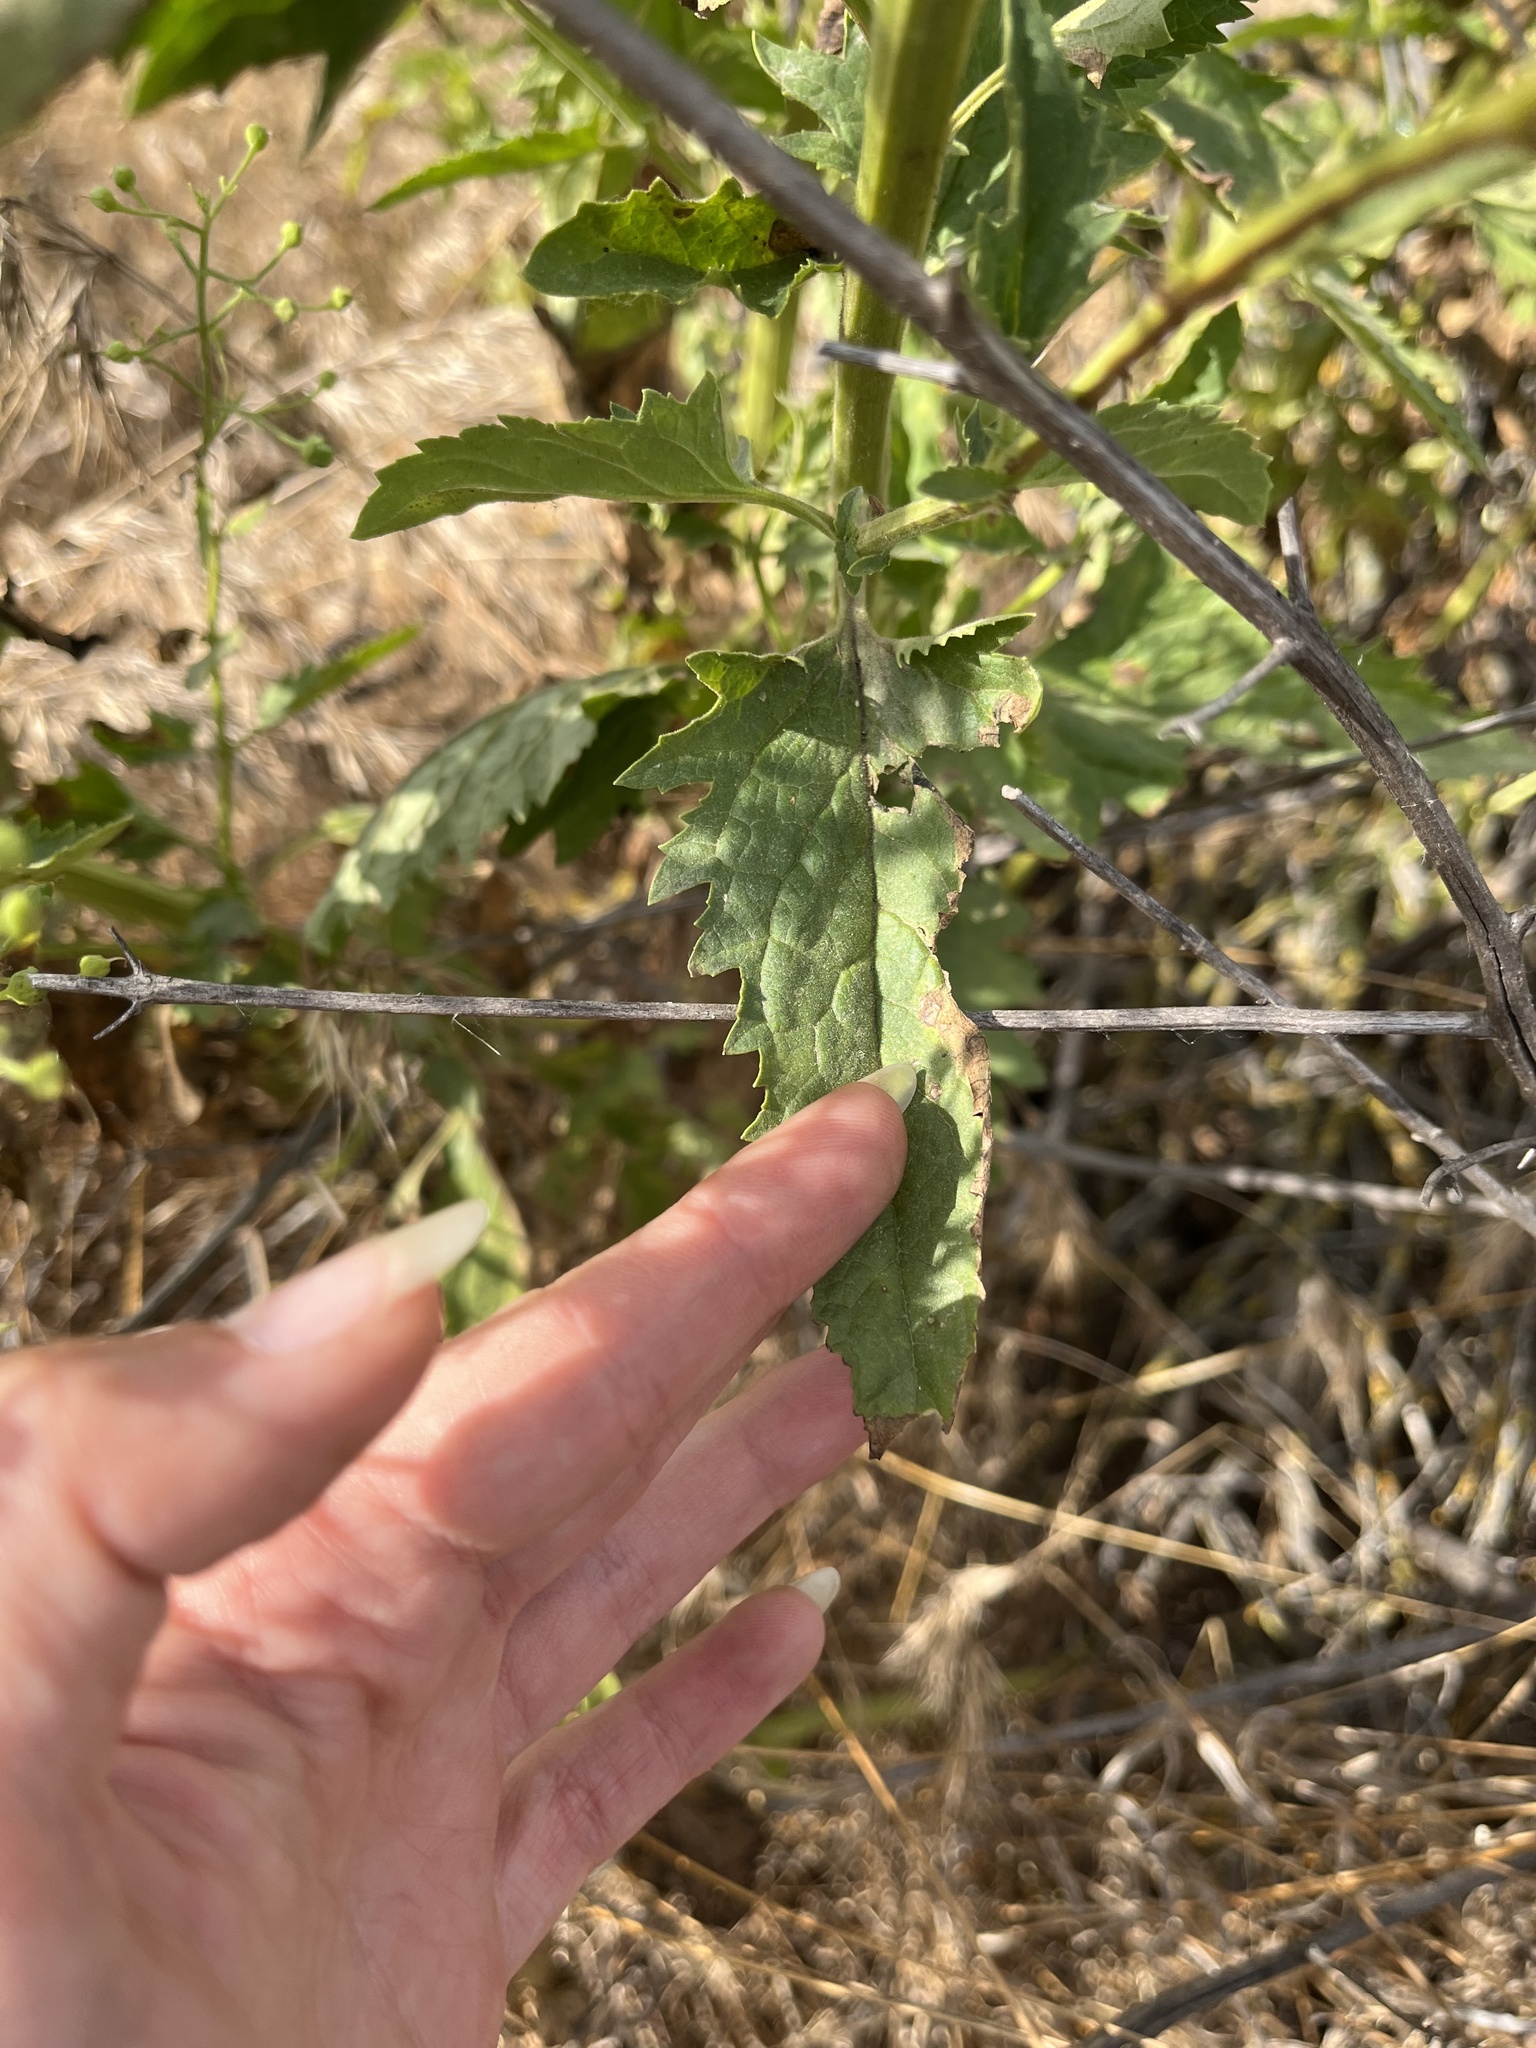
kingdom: Plantae
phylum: Tracheophyta
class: Magnoliopsida
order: Lamiales
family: Scrophulariaceae
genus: Scrophularia
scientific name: Scrophularia californica
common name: California figwort
